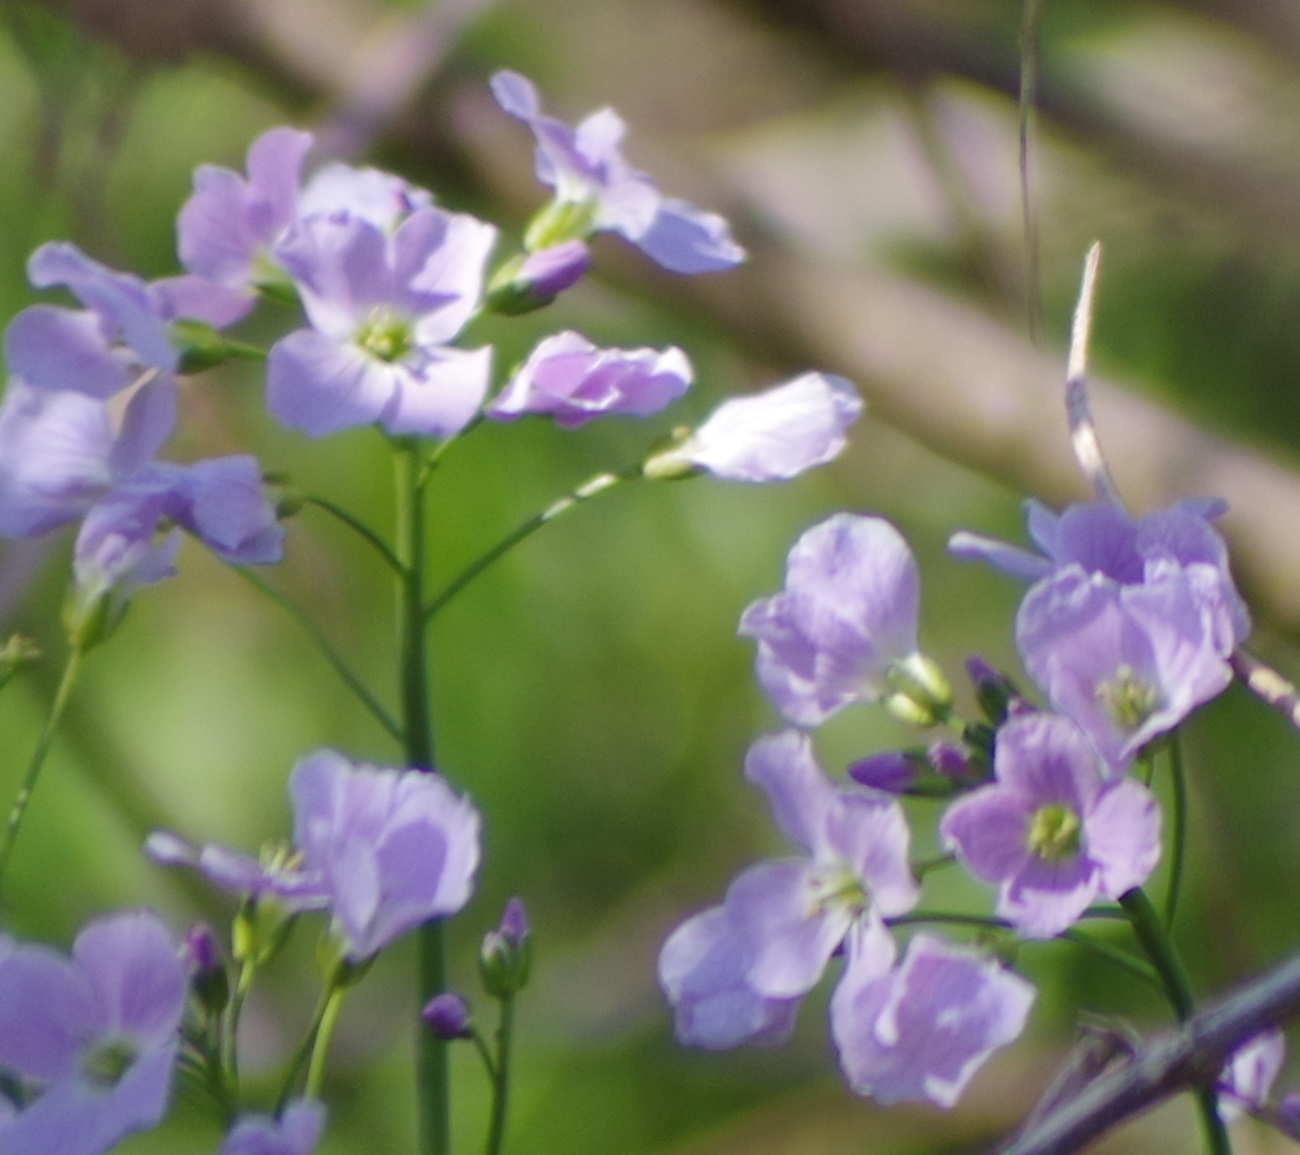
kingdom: Plantae
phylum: Tracheophyta
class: Magnoliopsida
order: Brassicales
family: Brassicaceae
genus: Cardamine
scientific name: Cardamine pratensis
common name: Cuckoo flower
